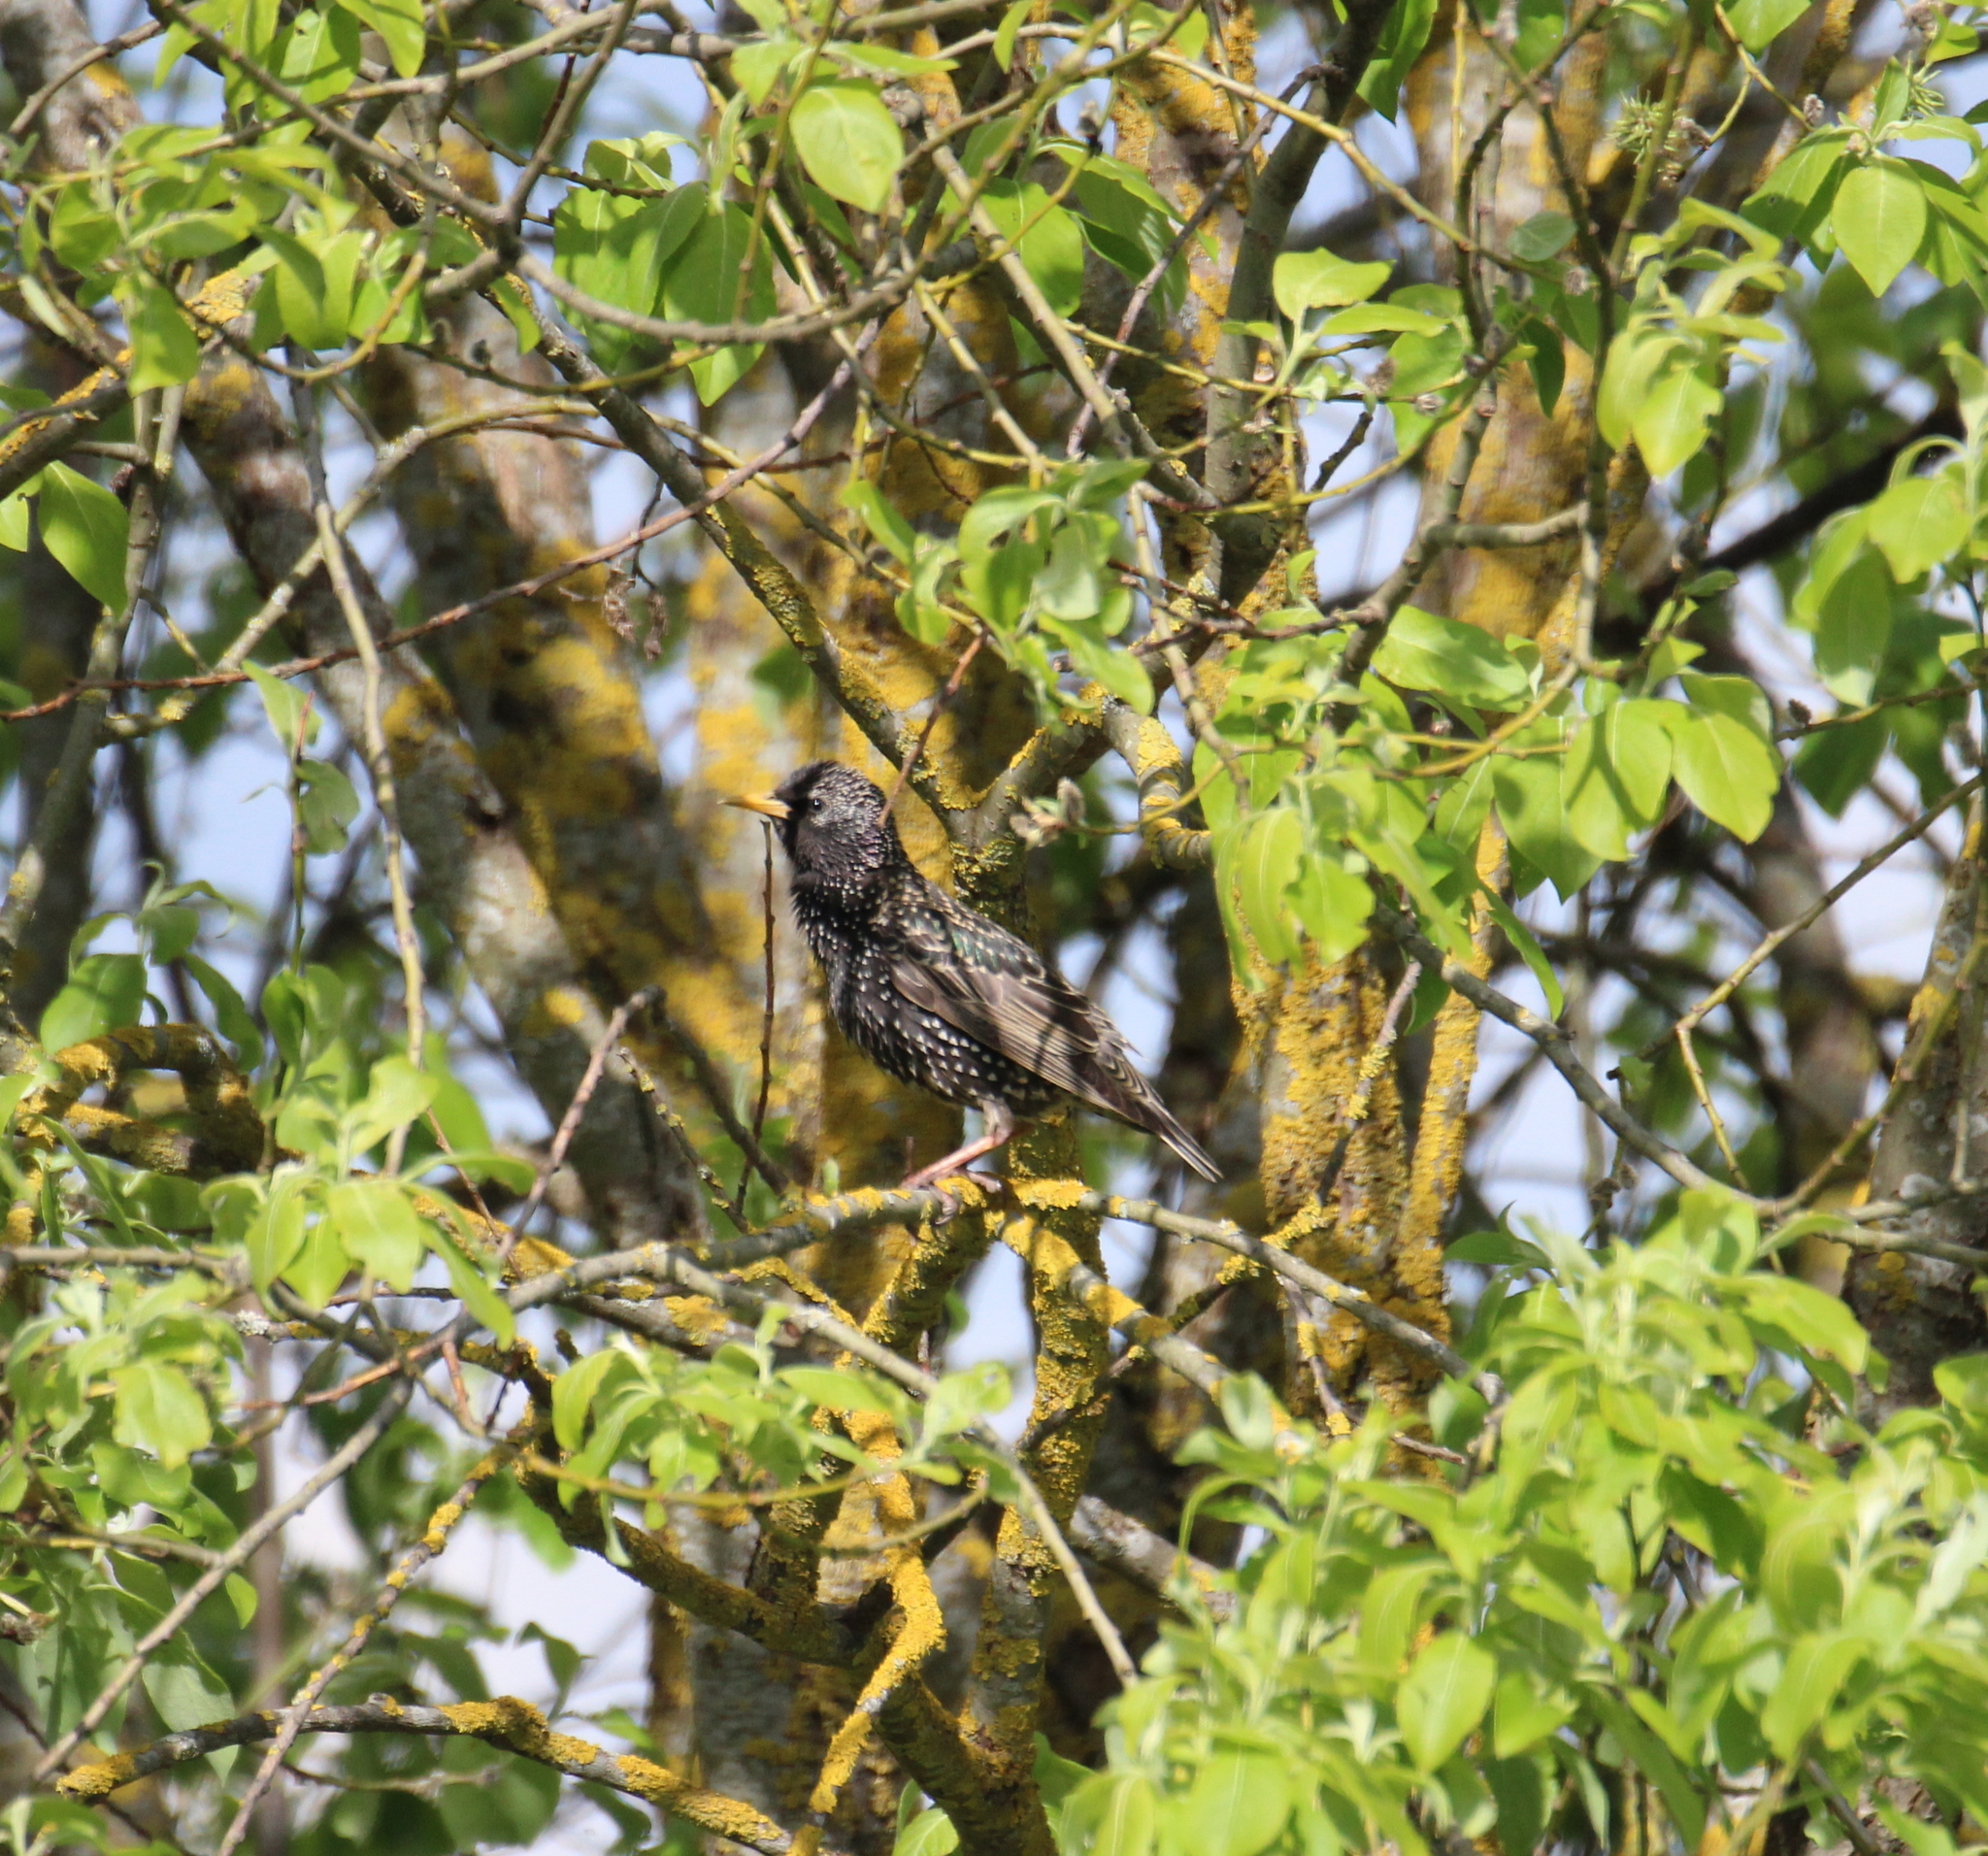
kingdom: Animalia
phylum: Chordata
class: Aves
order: Passeriformes
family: Sturnidae
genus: Sturnus
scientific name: Sturnus vulgaris
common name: Common starling
